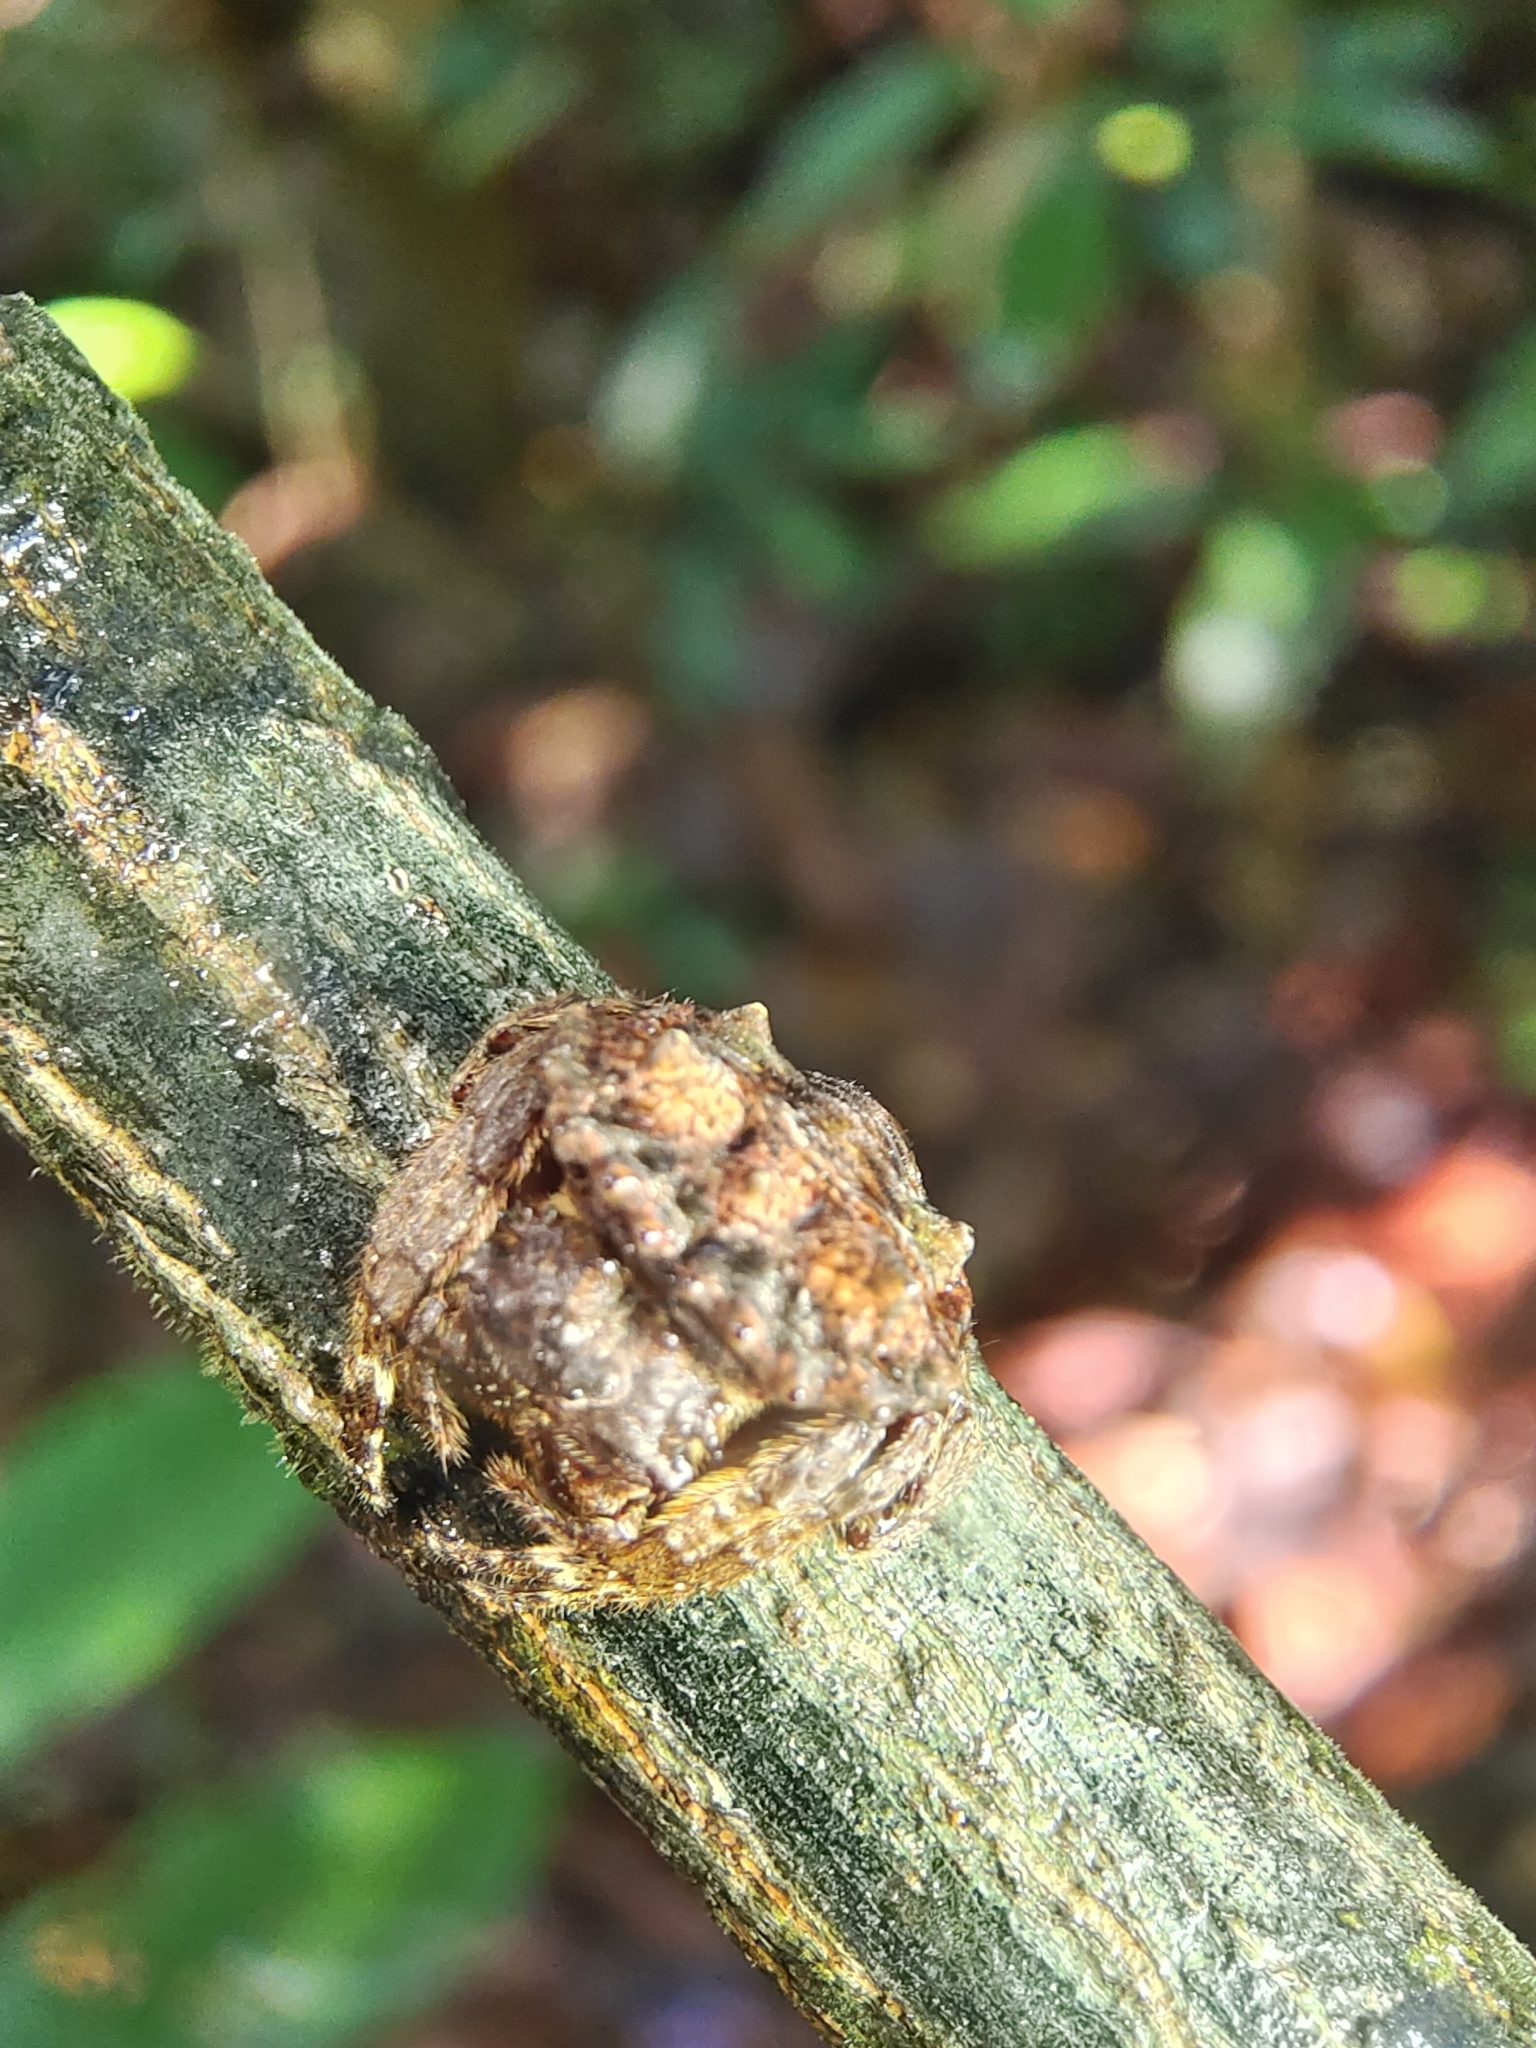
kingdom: Animalia
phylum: Arthropoda
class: Arachnida
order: Araneae
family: Araneidae
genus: Caerostris
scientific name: Caerostris sumatrana
